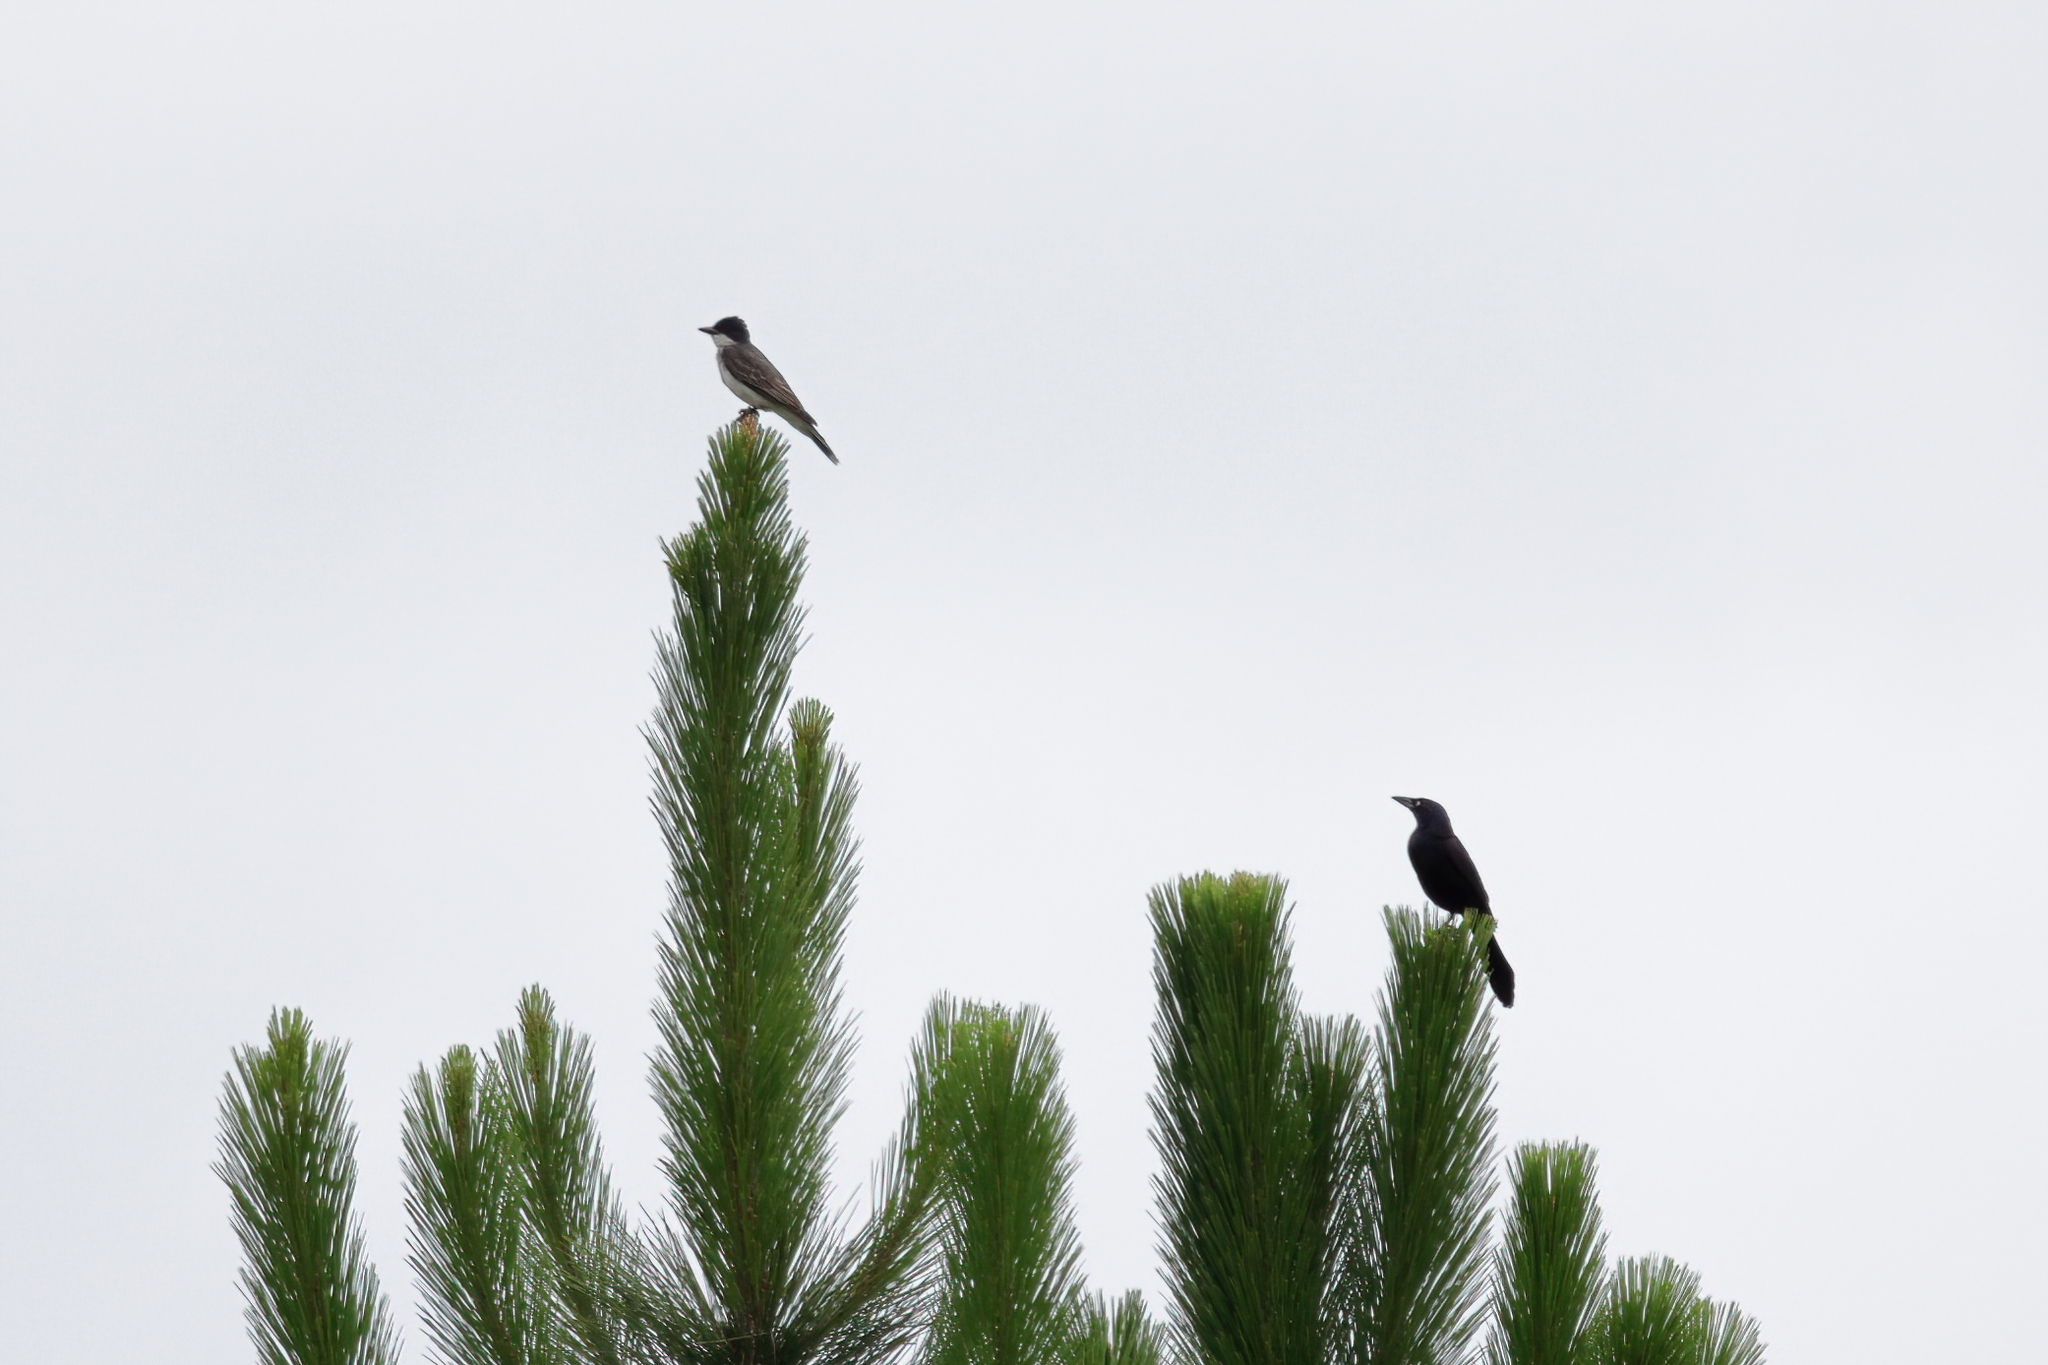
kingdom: Animalia
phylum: Chordata
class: Aves
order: Passeriformes
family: Tyrannidae
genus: Tyrannus
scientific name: Tyrannus tyrannus
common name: Eastern kingbird
